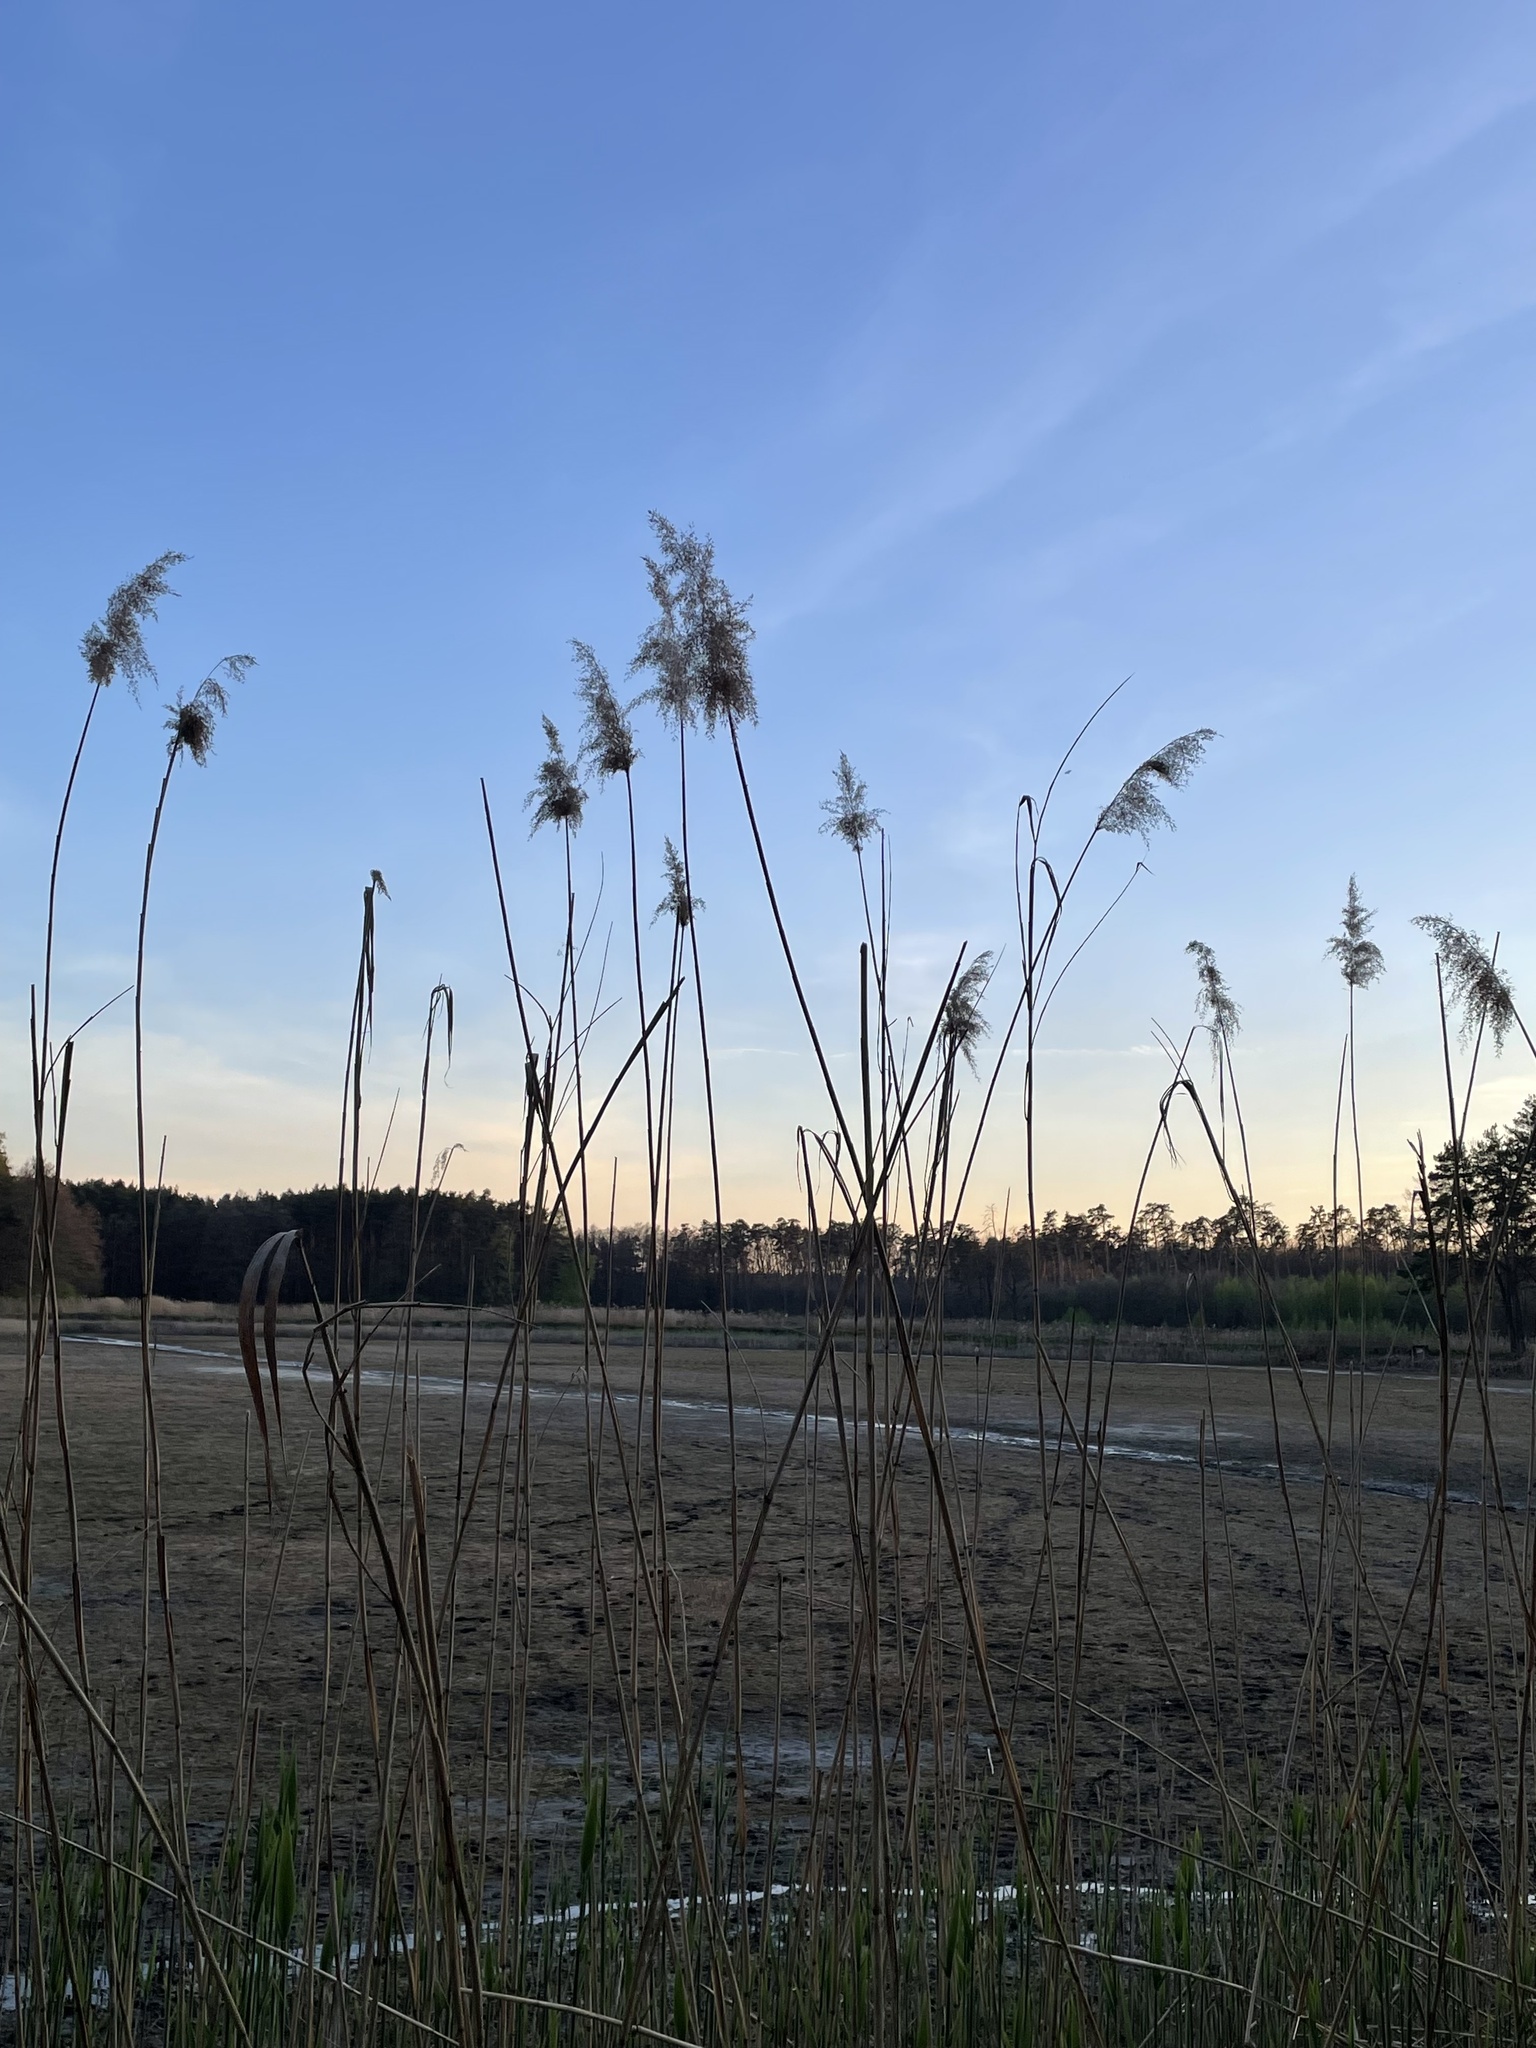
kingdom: Plantae
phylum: Tracheophyta
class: Liliopsida
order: Poales
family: Poaceae
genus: Phragmites
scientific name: Phragmites australis
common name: Common reed
